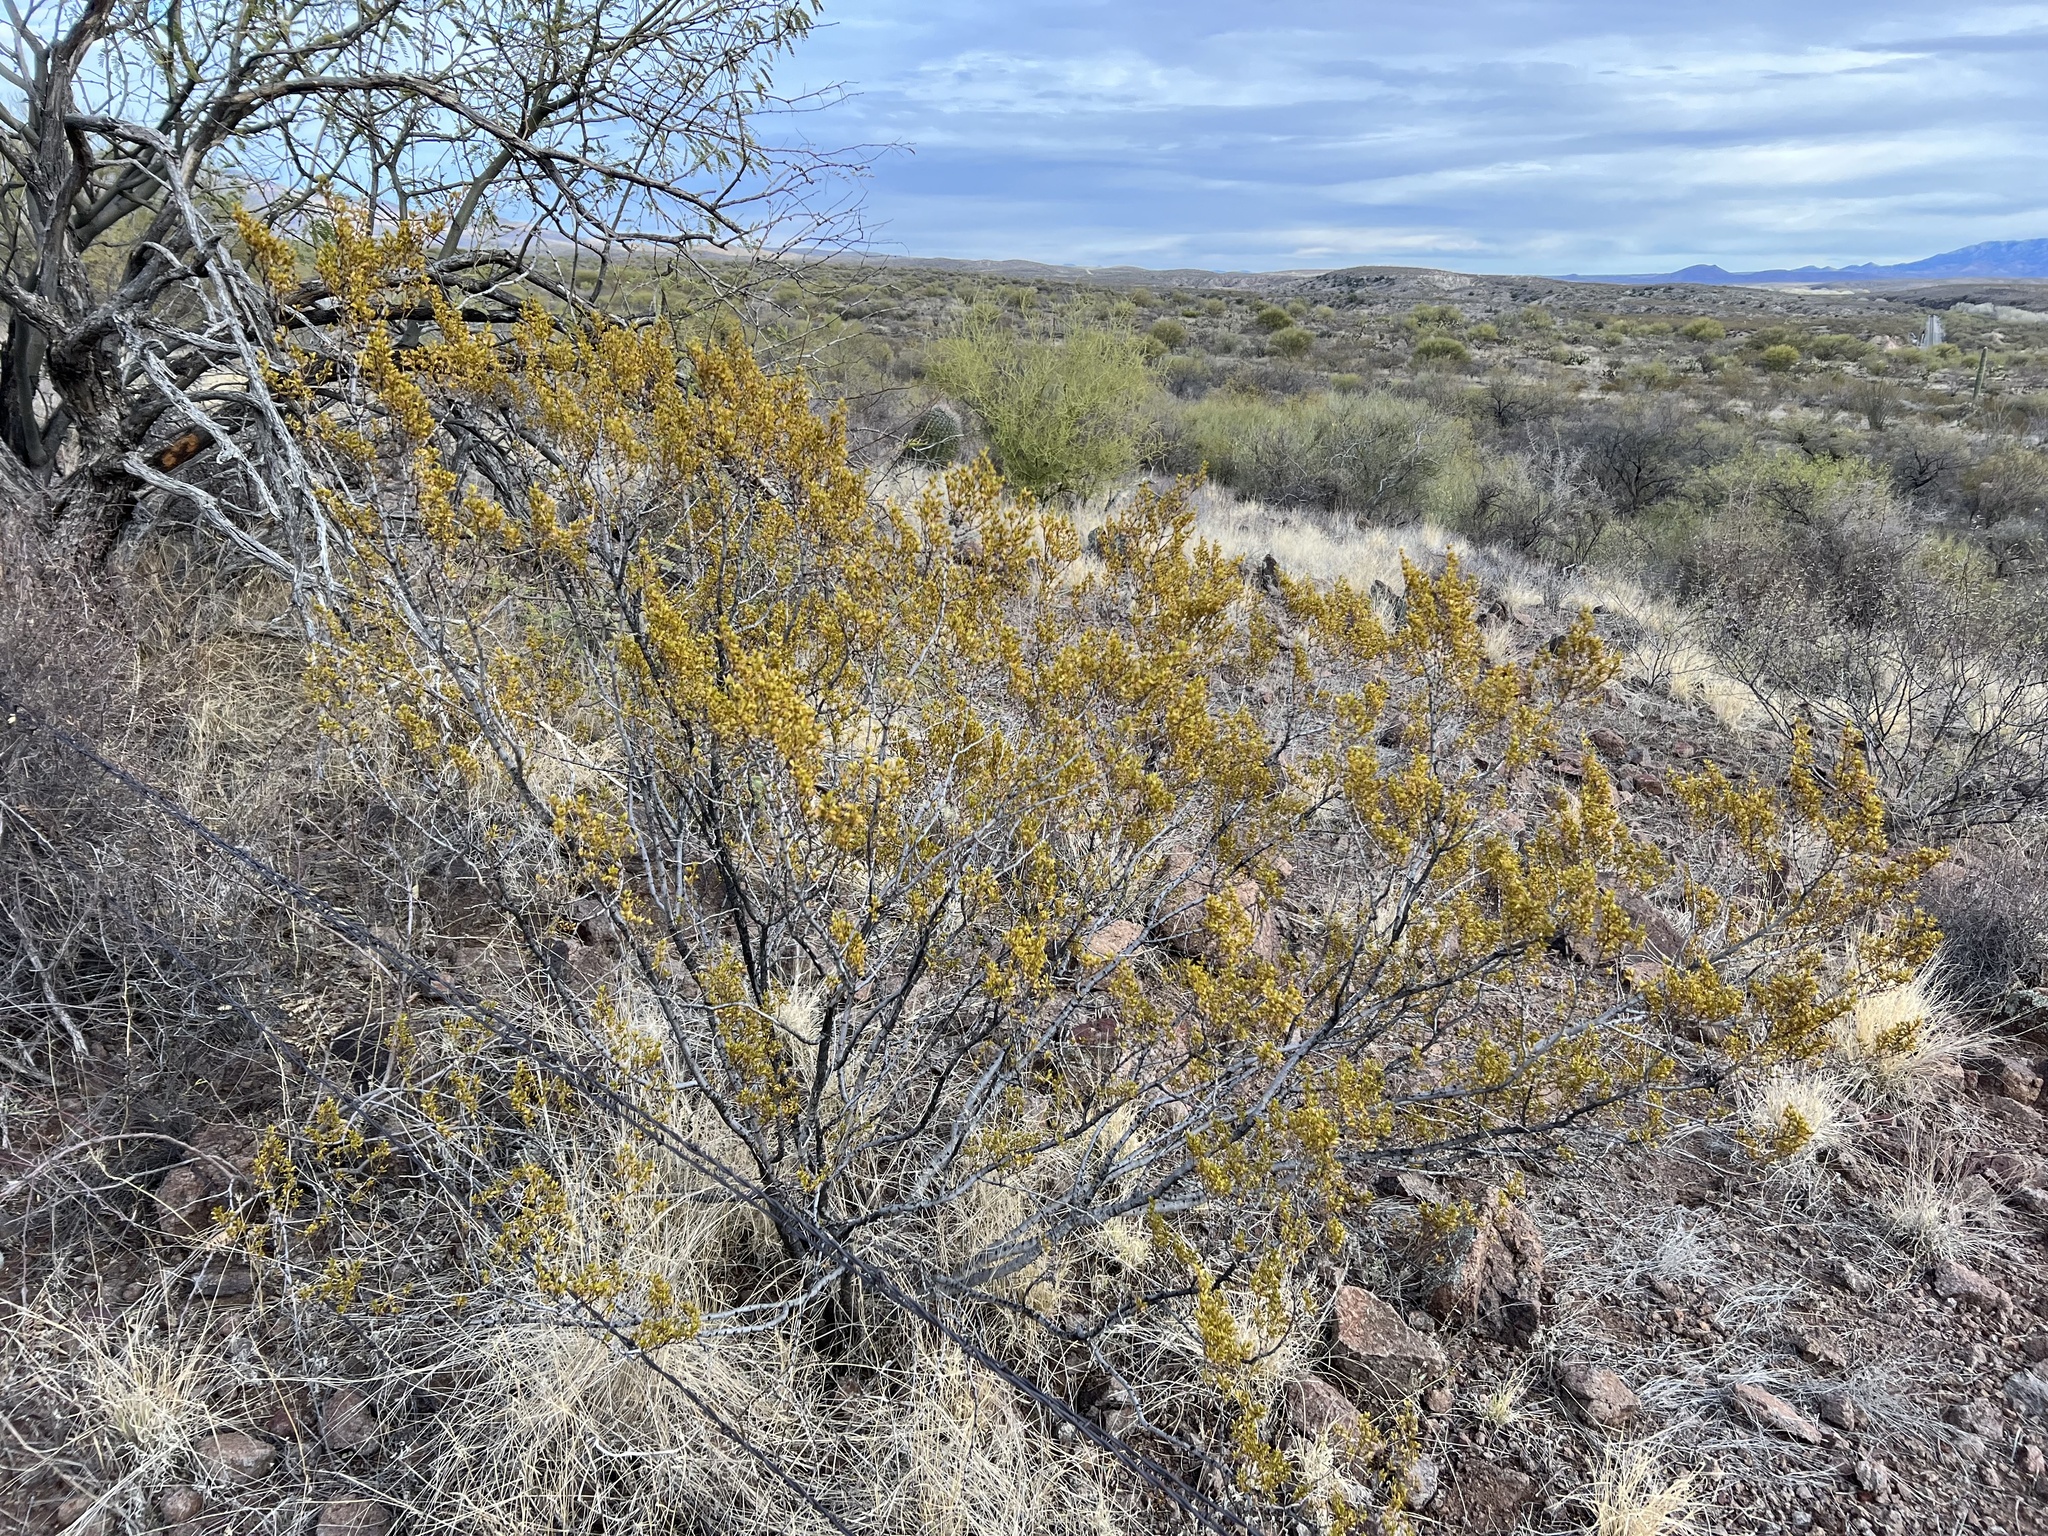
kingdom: Plantae
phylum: Tracheophyta
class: Magnoliopsida
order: Zygophyllales
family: Zygophyllaceae
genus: Larrea
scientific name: Larrea tridentata
